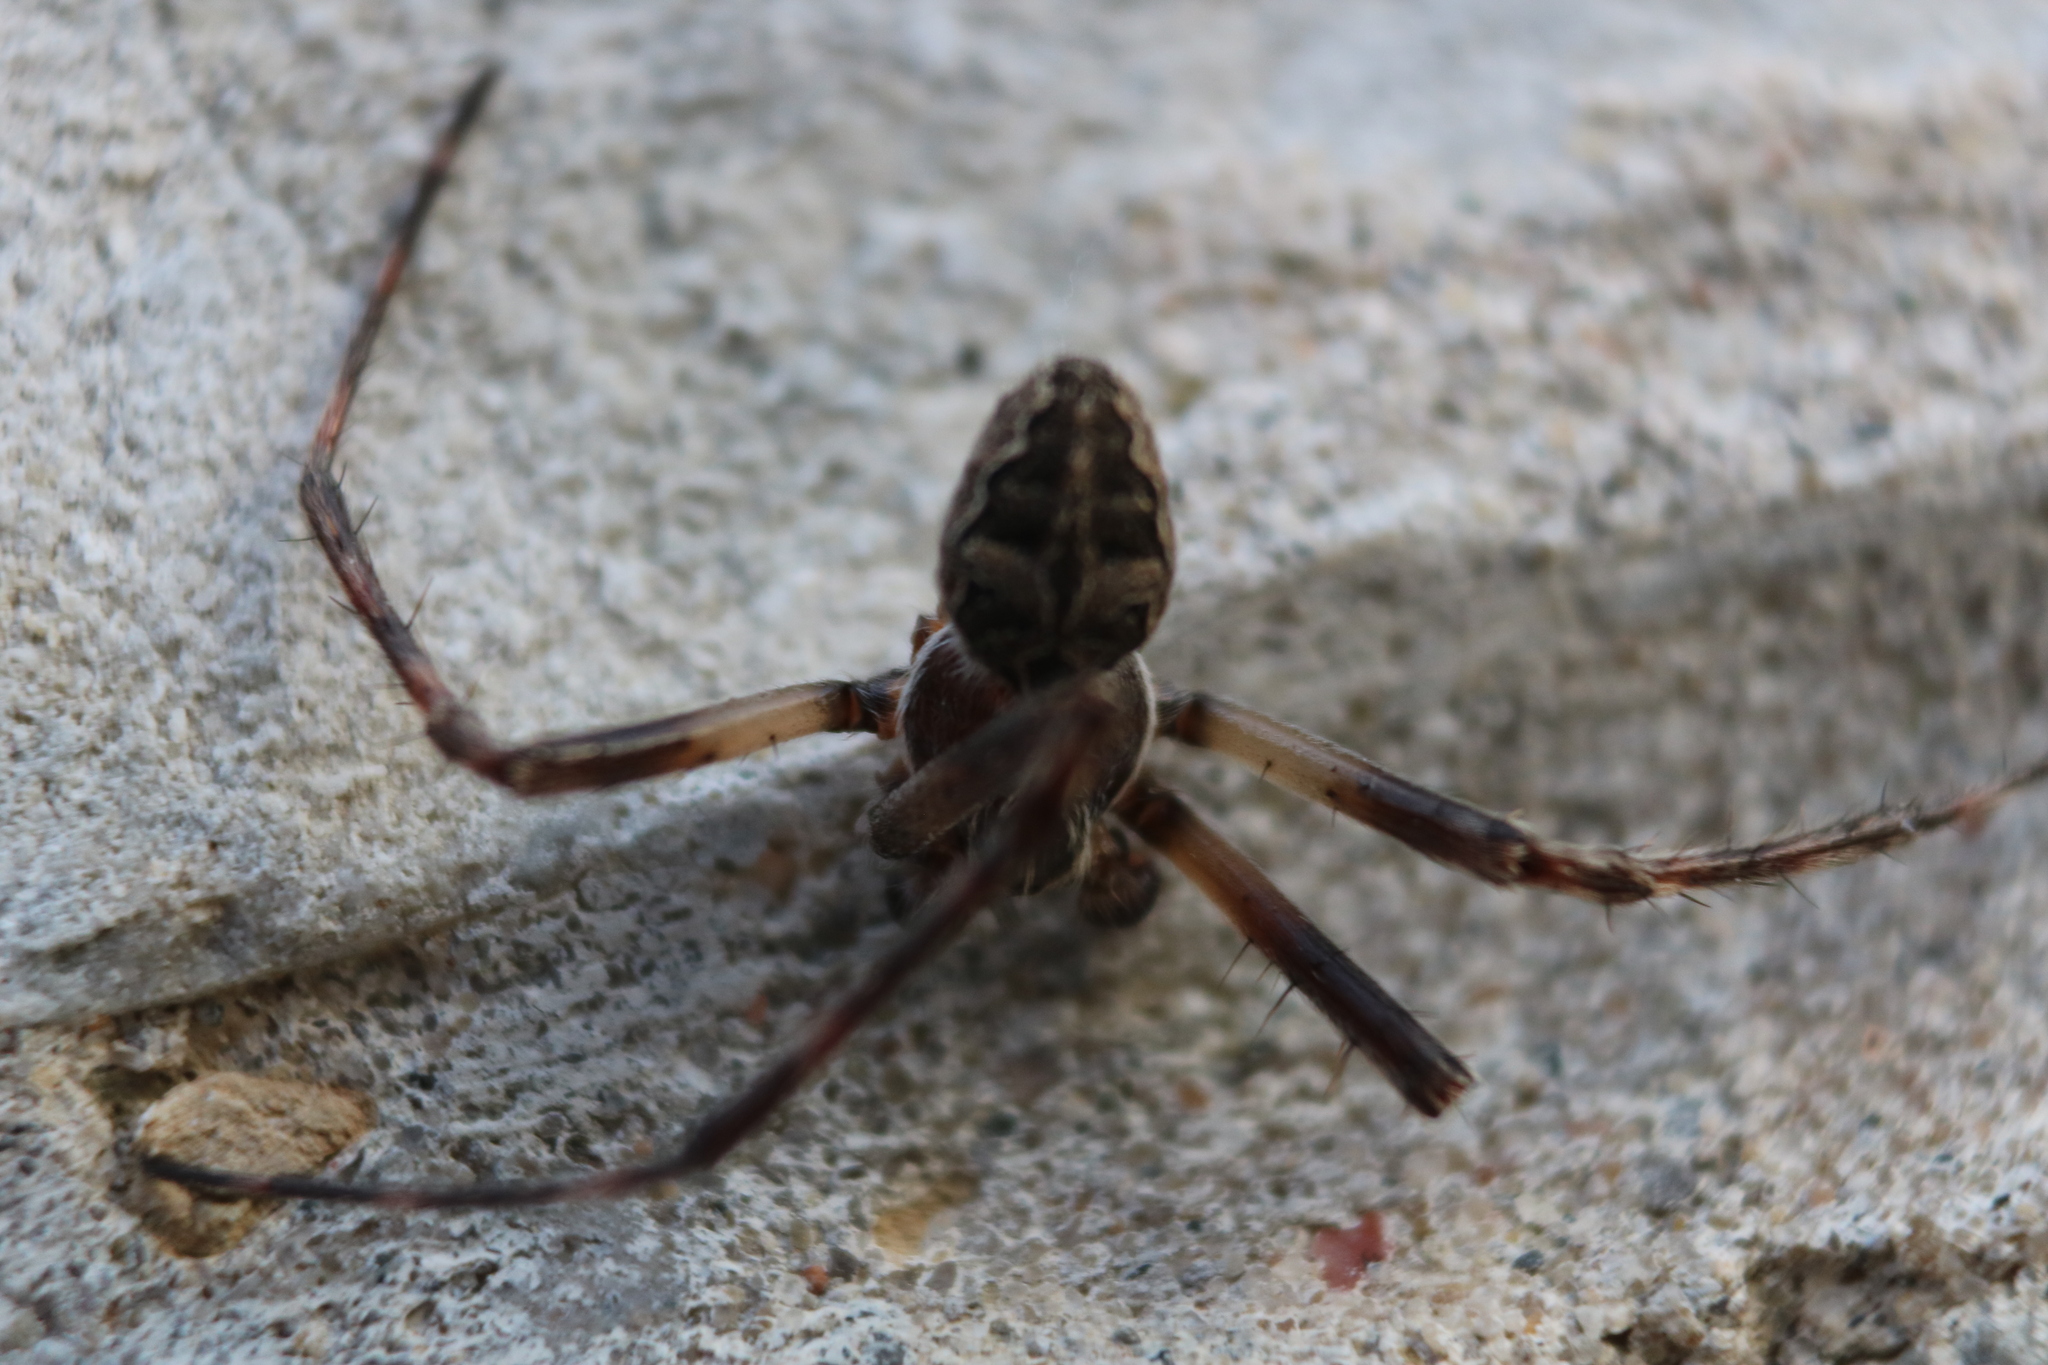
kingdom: Animalia
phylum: Arthropoda
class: Arachnida
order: Araneae
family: Araneidae
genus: Larinioides
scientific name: Larinioides sclopetarius
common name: Bridge orbweaver
